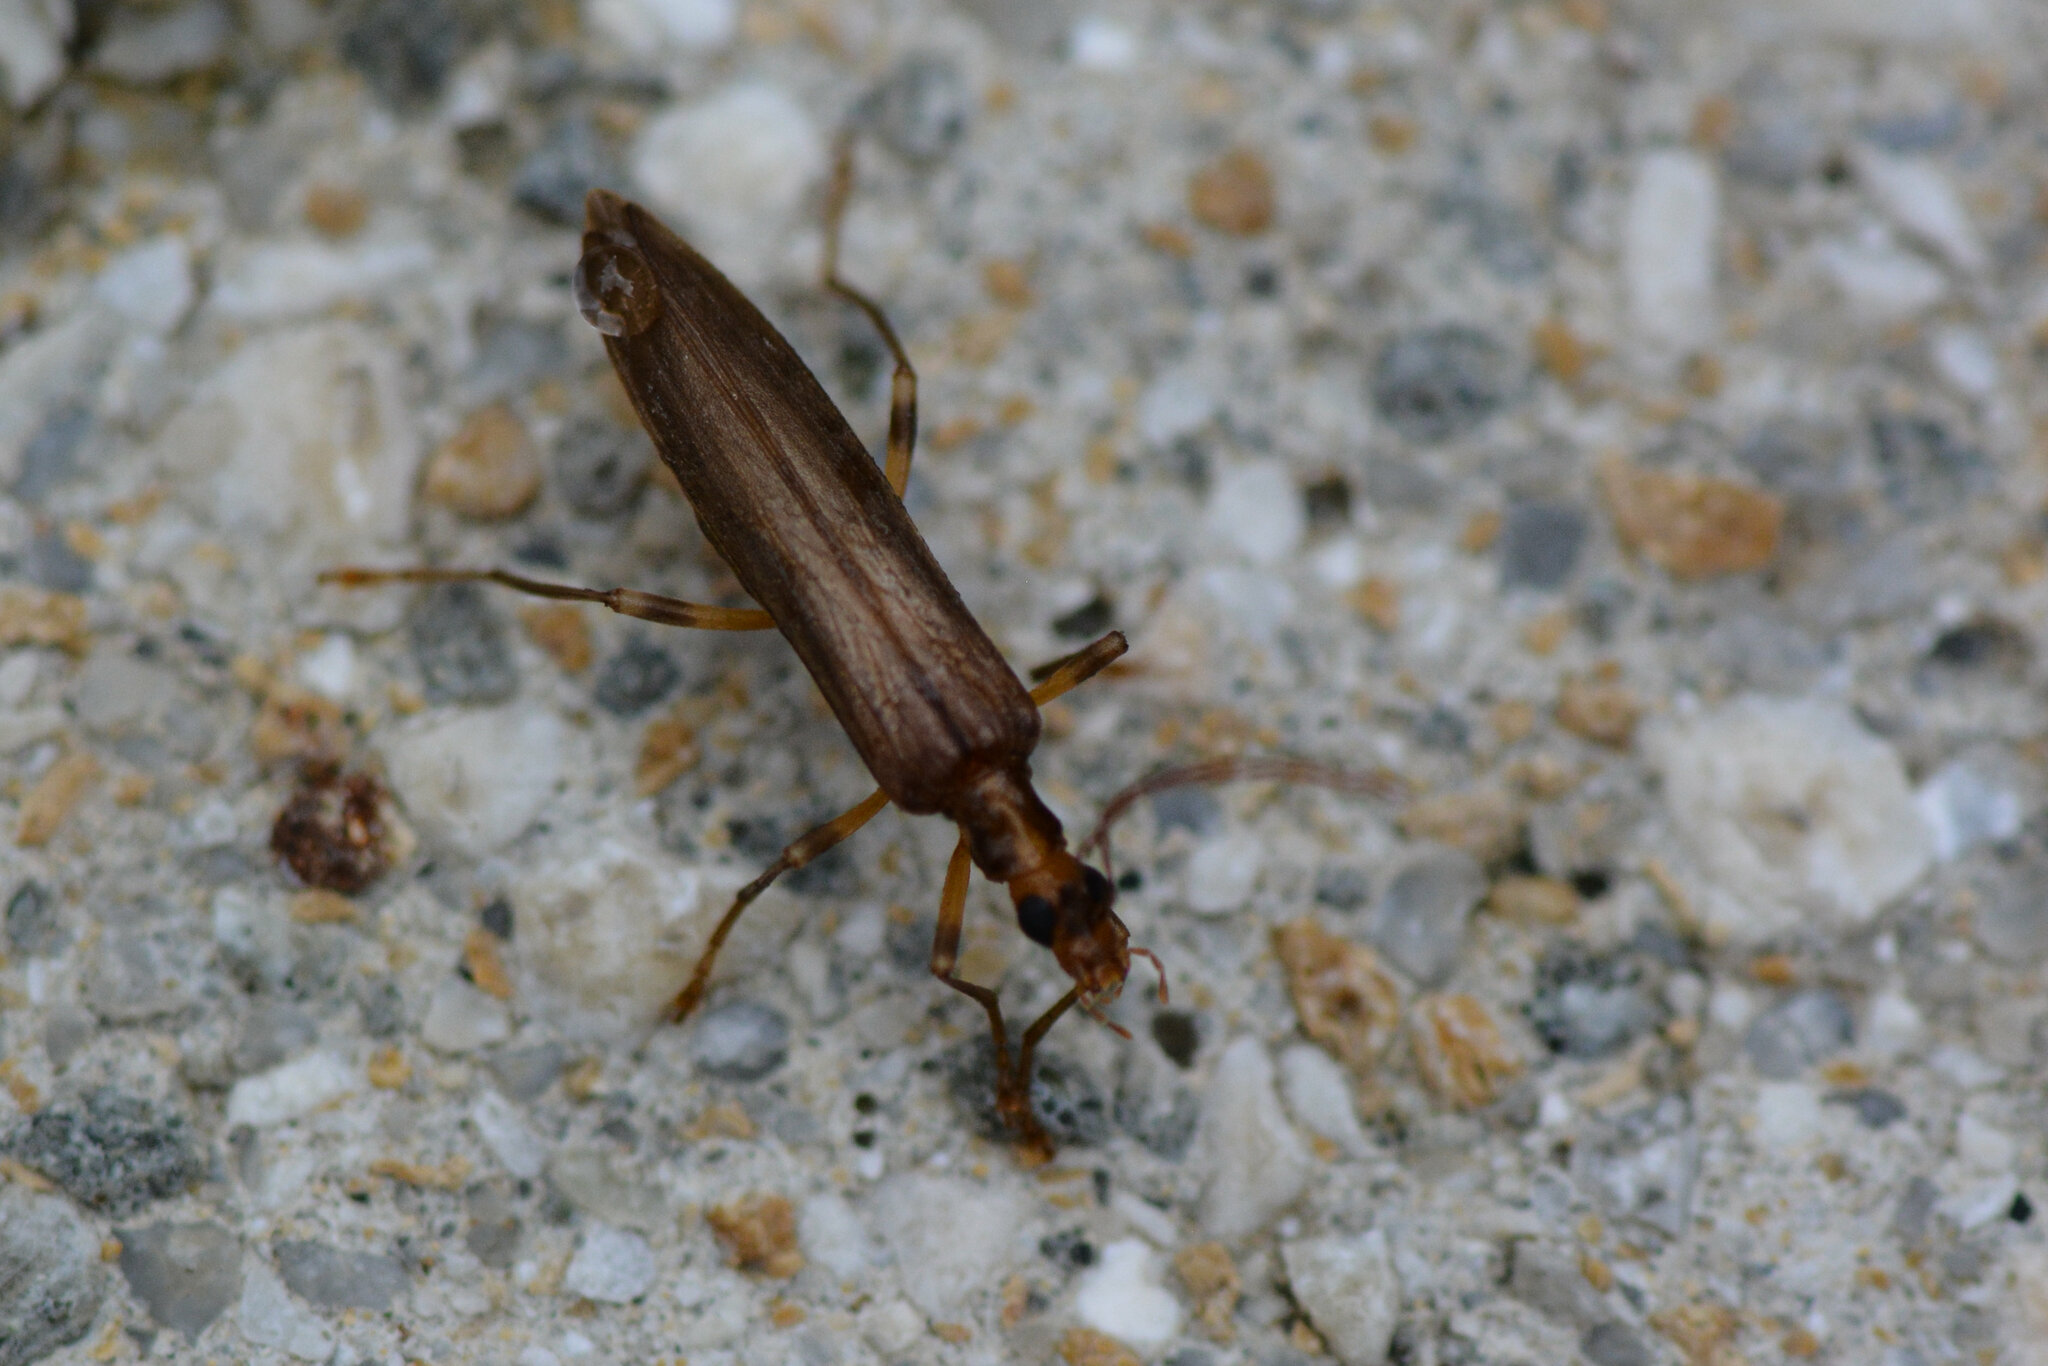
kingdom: Animalia
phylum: Arthropoda
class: Insecta
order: Coleoptera
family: Oedemeridae
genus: Oedemera
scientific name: Oedemera femoralis
